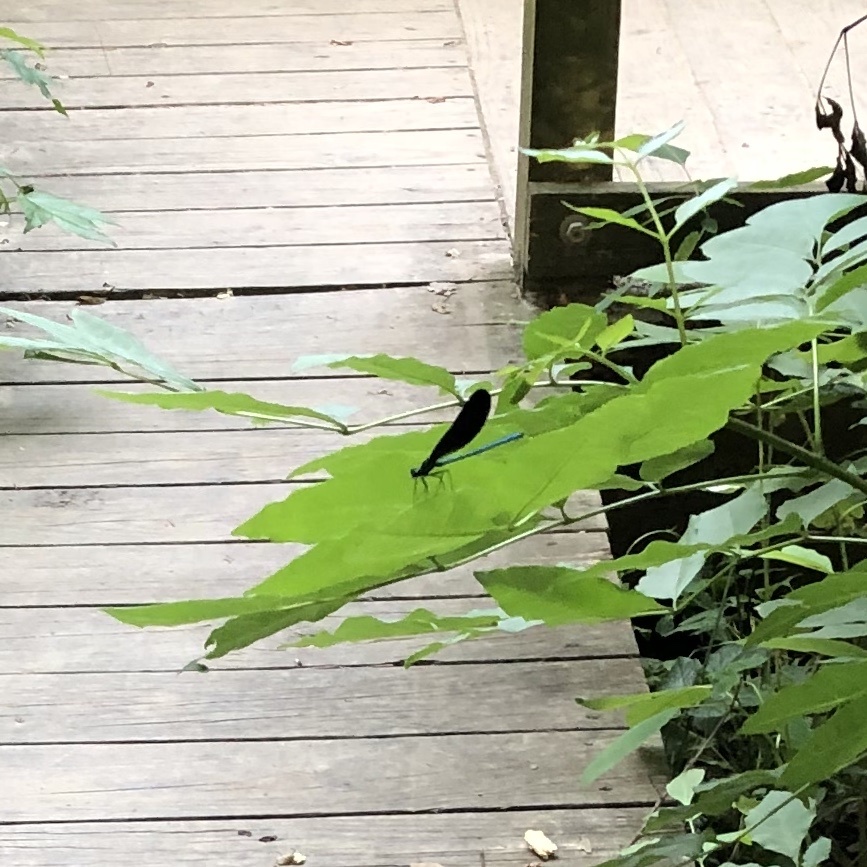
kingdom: Animalia
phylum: Arthropoda
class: Insecta
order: Odonata
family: Calopterygidae
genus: Calopteryx
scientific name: Calopteryx maculata
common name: Ebony jewelwing
